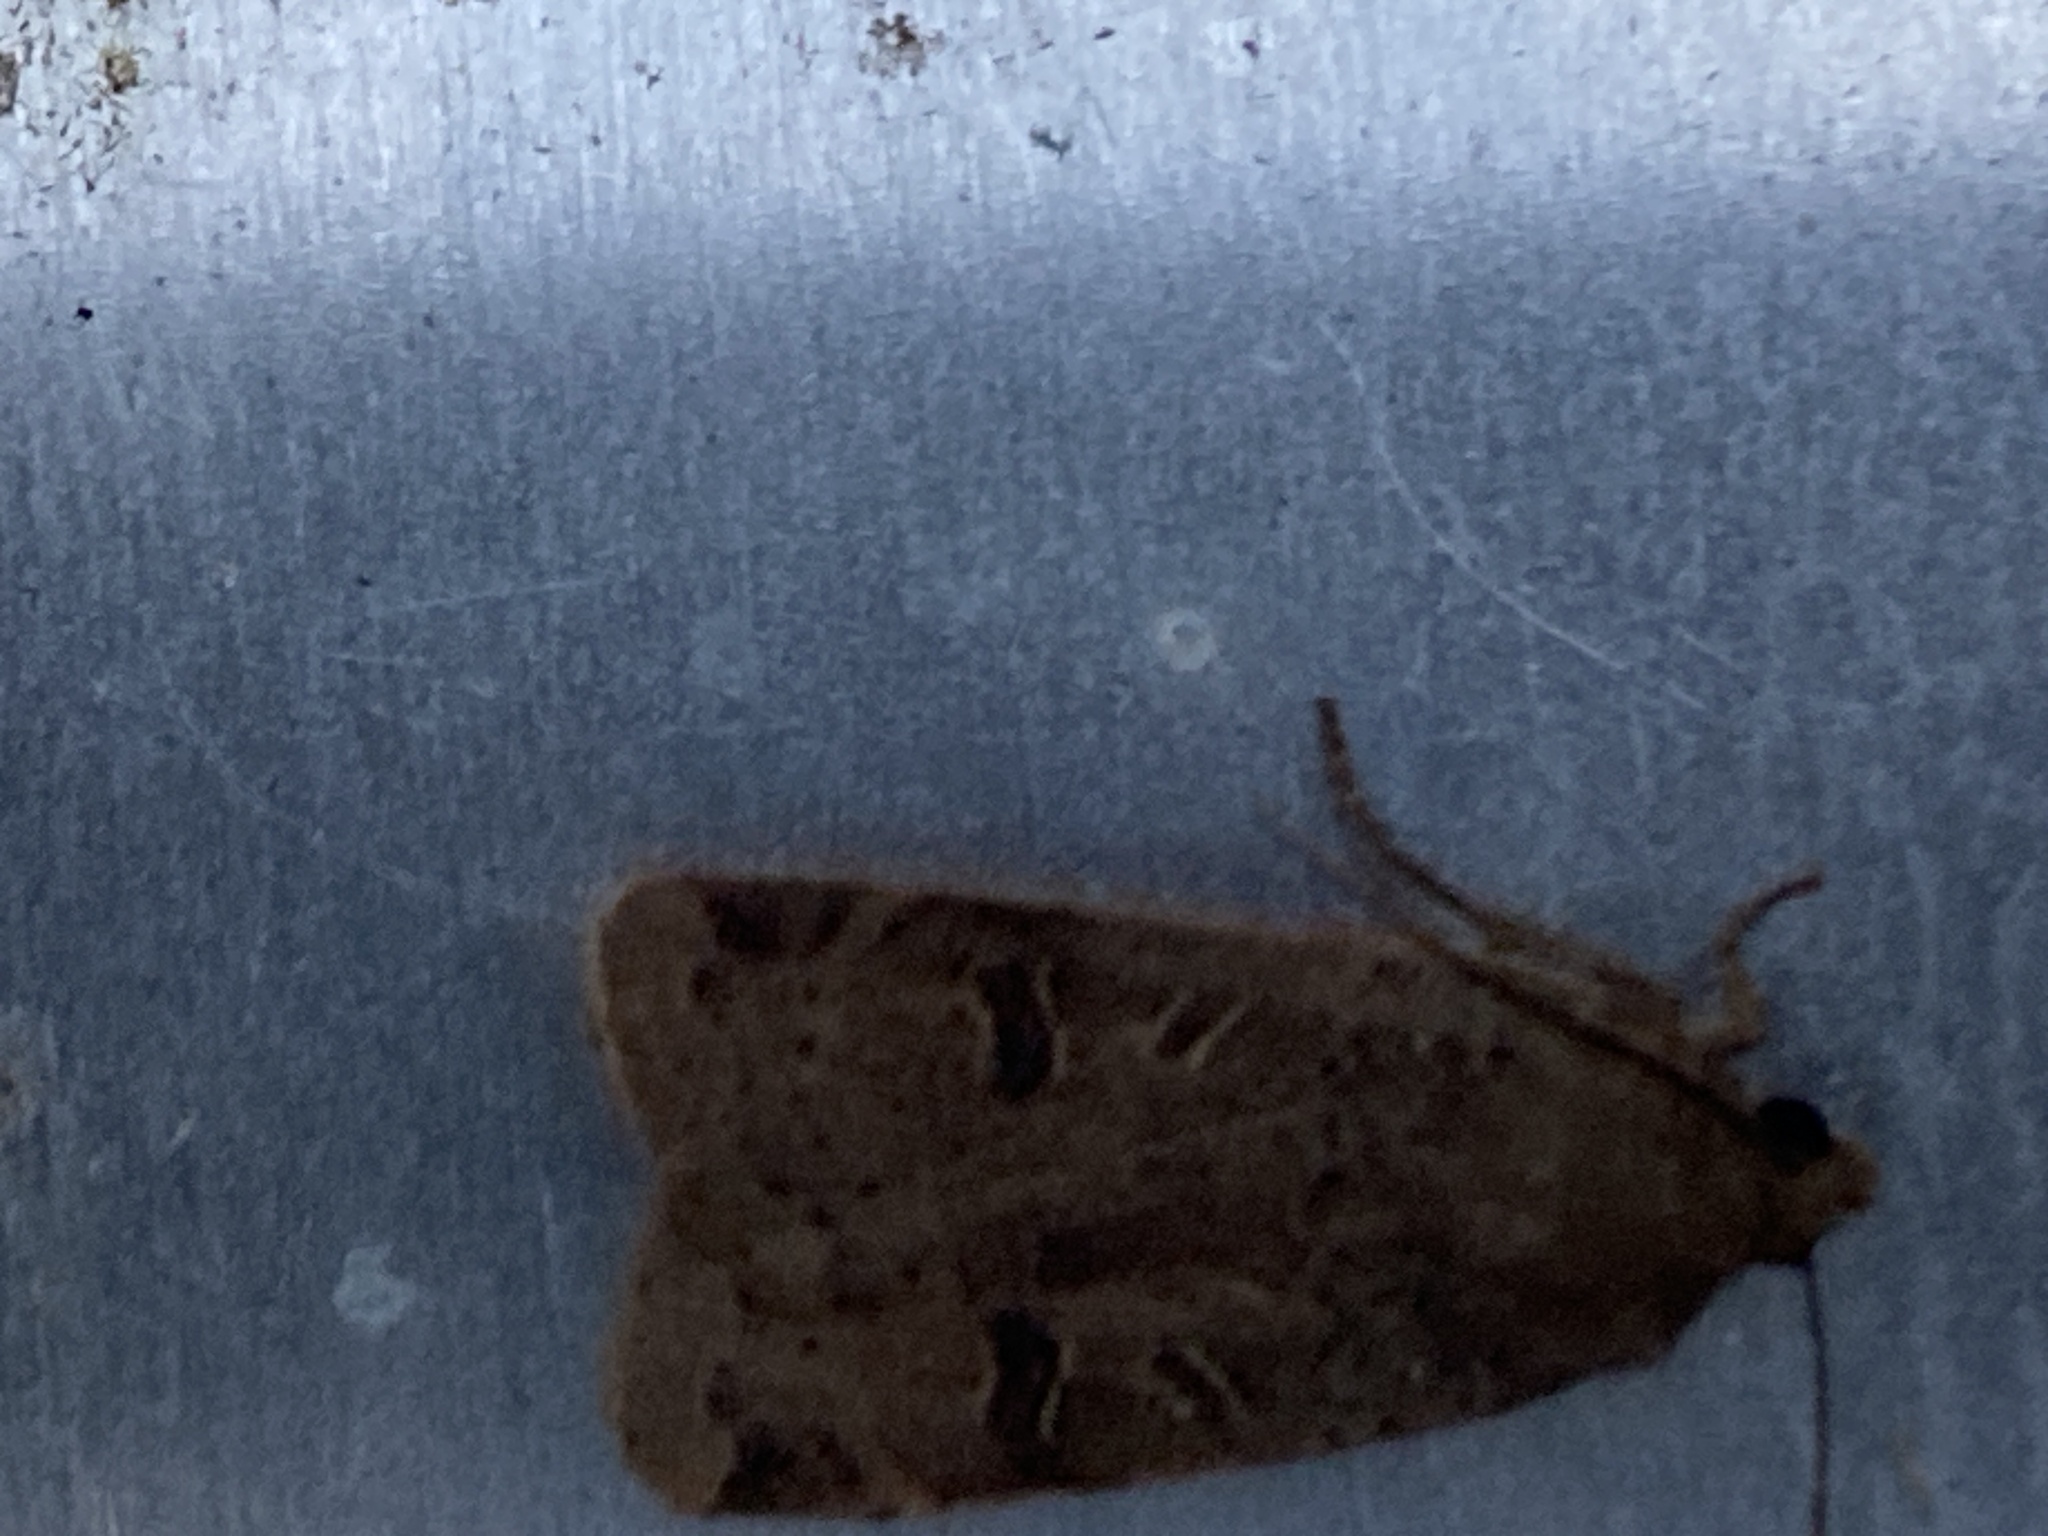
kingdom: Animalia
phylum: Arthropoda
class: Insecta
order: Lepidoptera
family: Noctuidae
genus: Noctua
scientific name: Noctua comes
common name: Lesser yellow underwing
